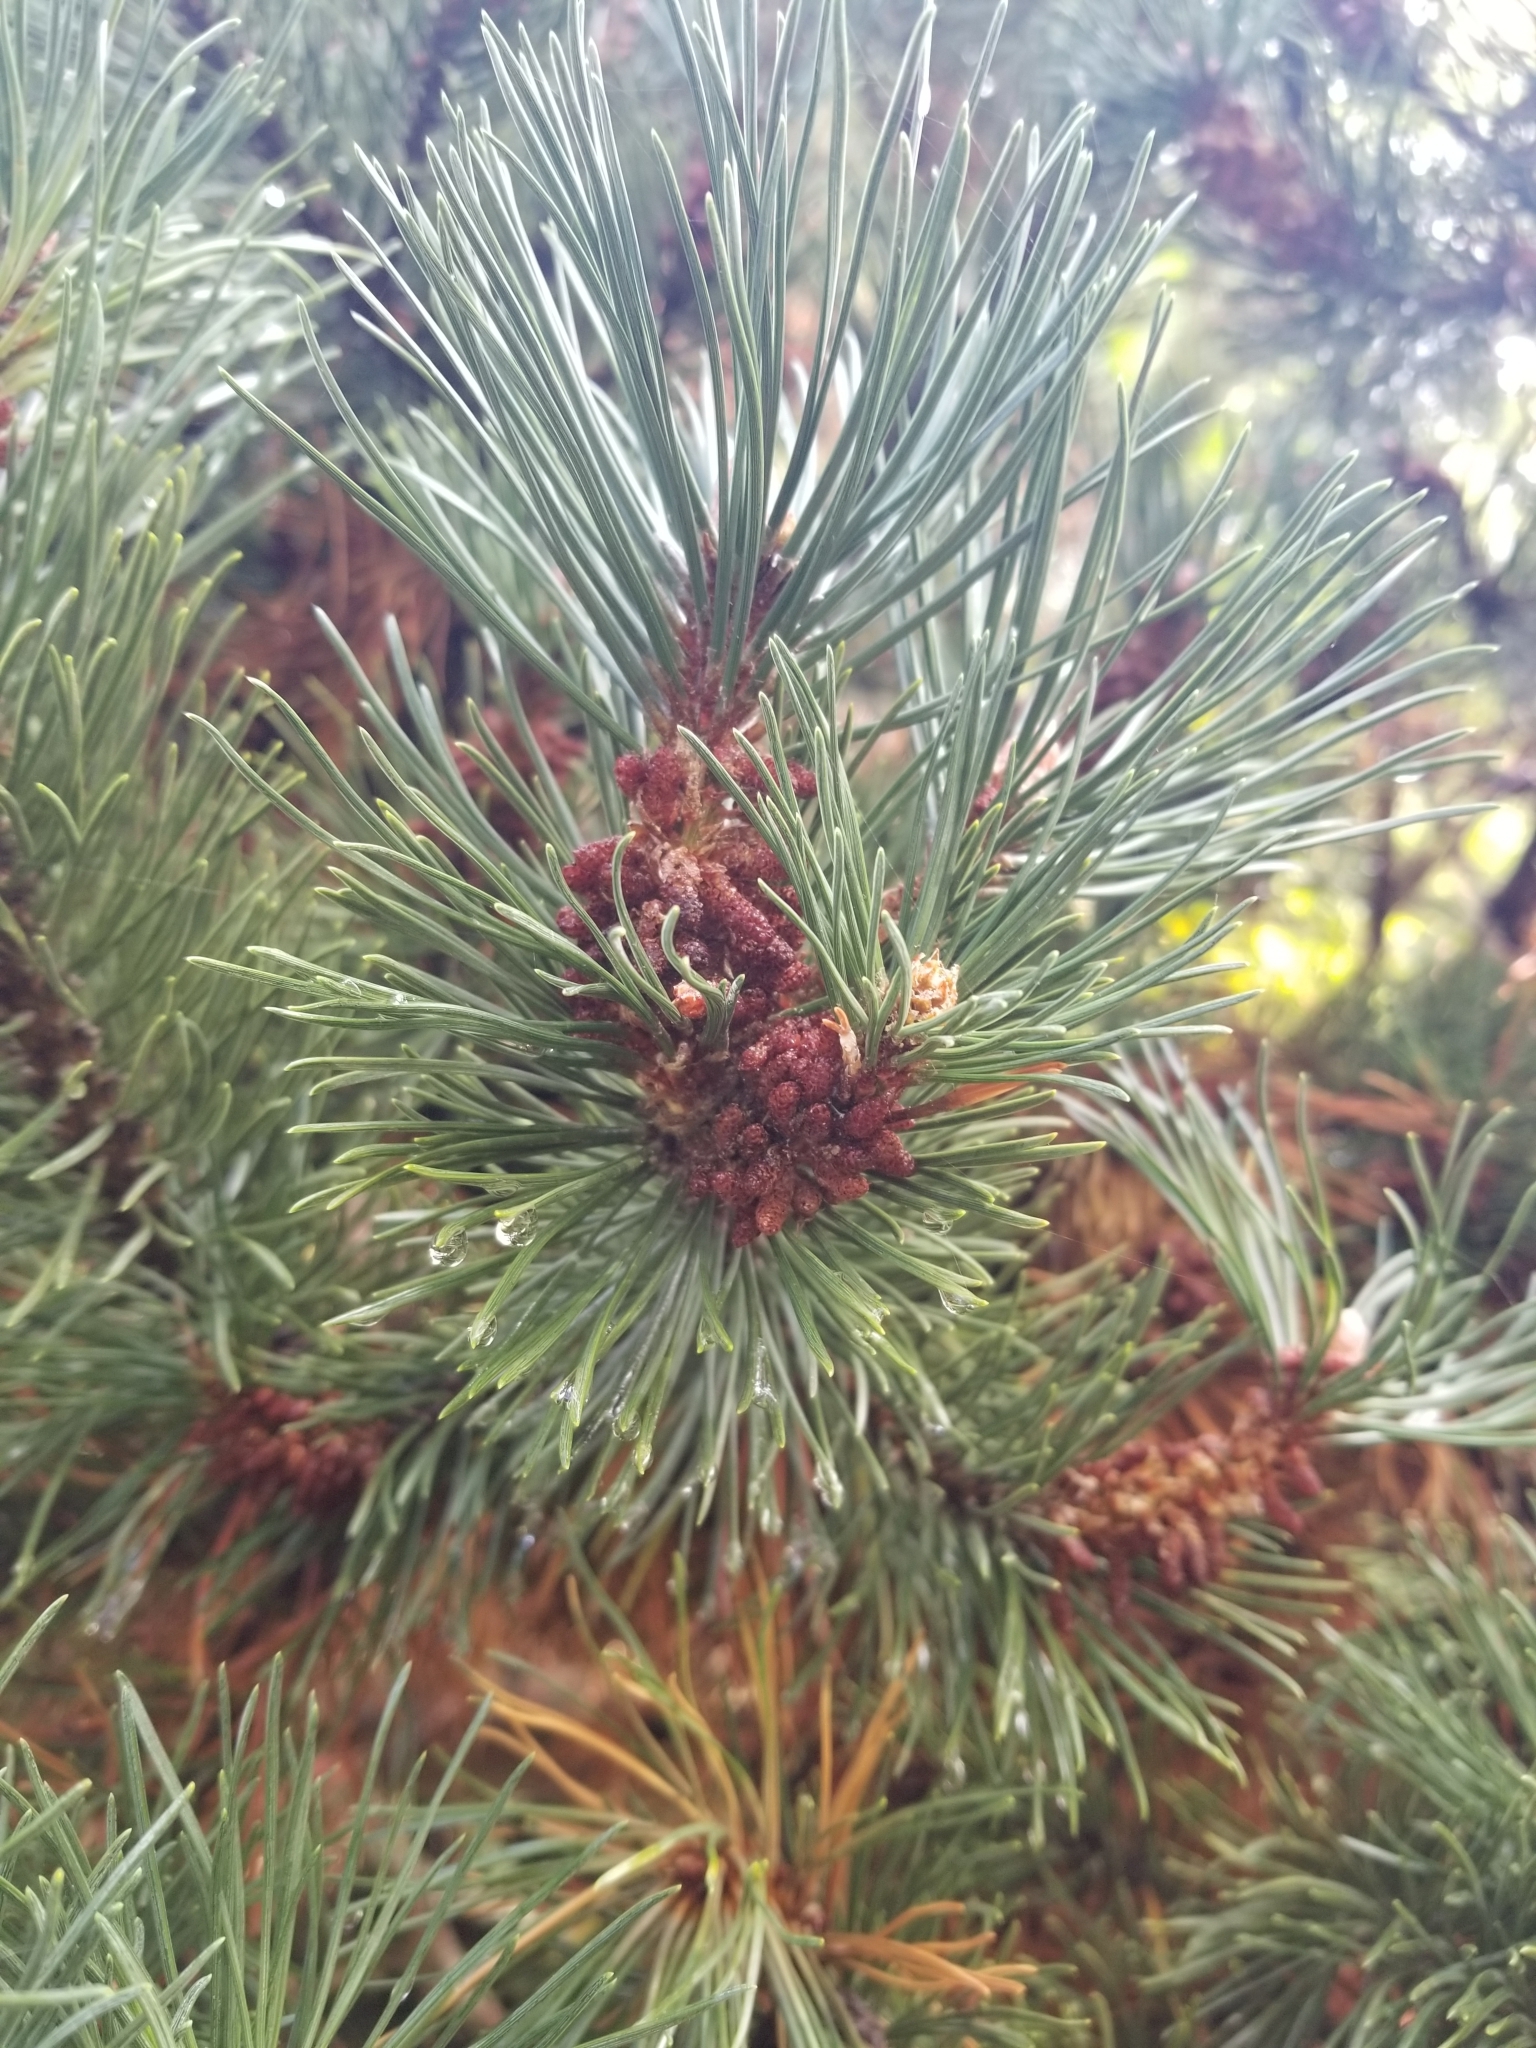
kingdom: Plantae
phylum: Tracheophyta
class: Pinopsida
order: Pinales
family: Pinaceae
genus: Pinus
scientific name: Pinus contorta
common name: Lodgepole pine
